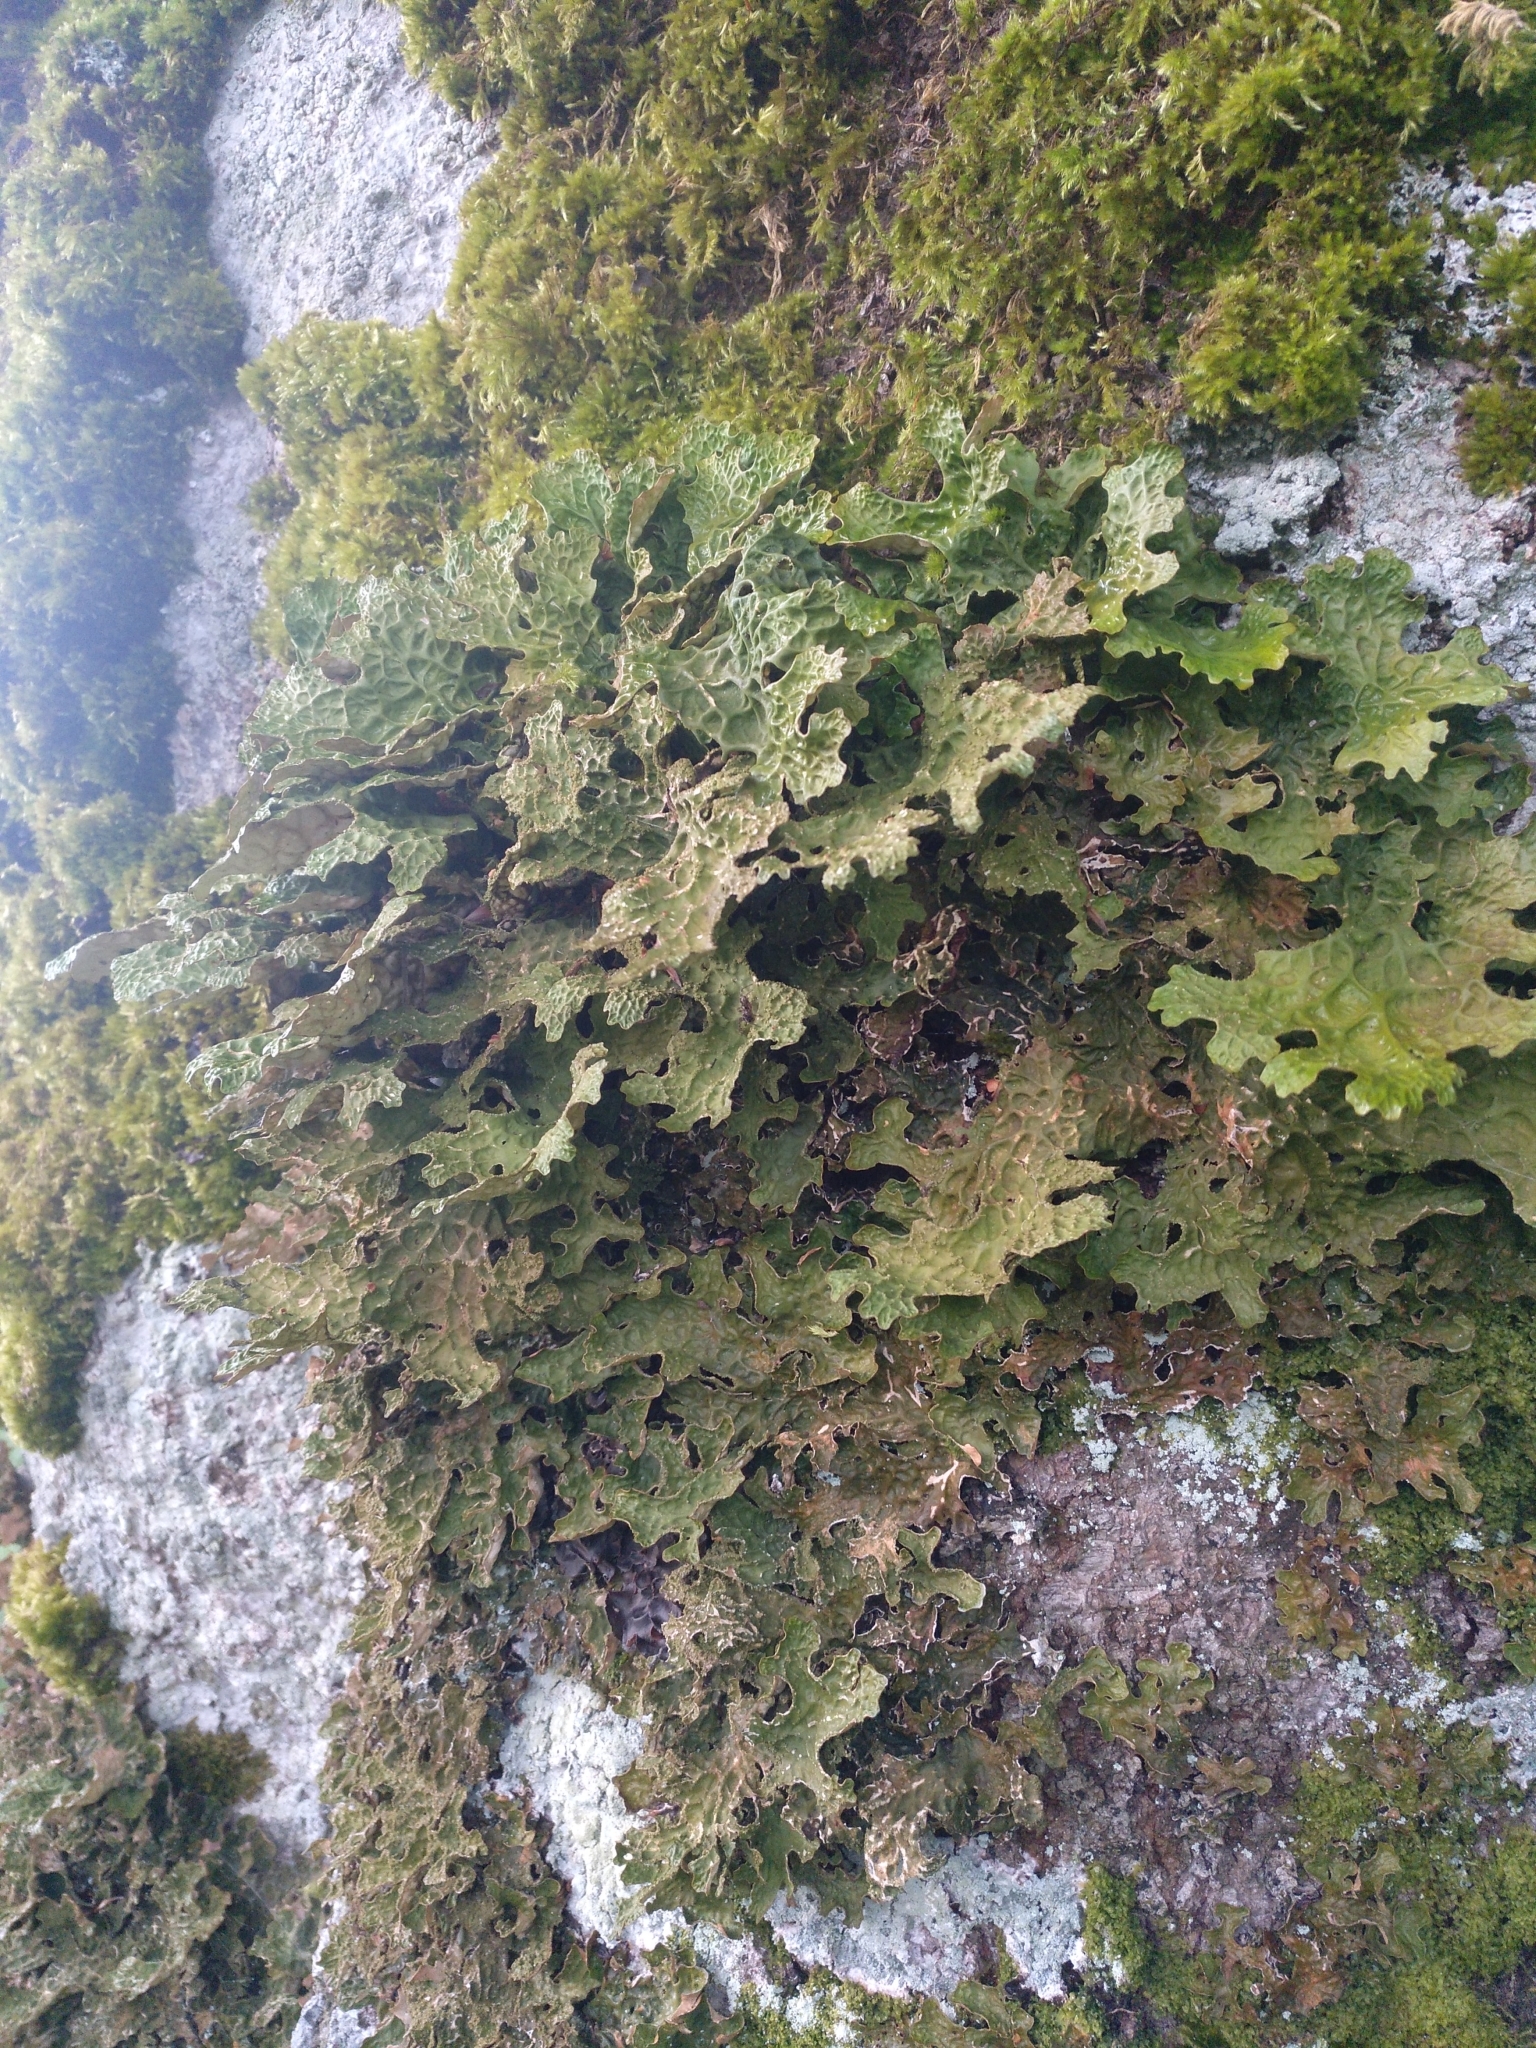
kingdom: Fungi
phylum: Ascomycota
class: Lecanoromycetes
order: Peltigerales
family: Lobariaceae
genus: Lobaria
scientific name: Lobaria pulmonaria
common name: Lungwort
